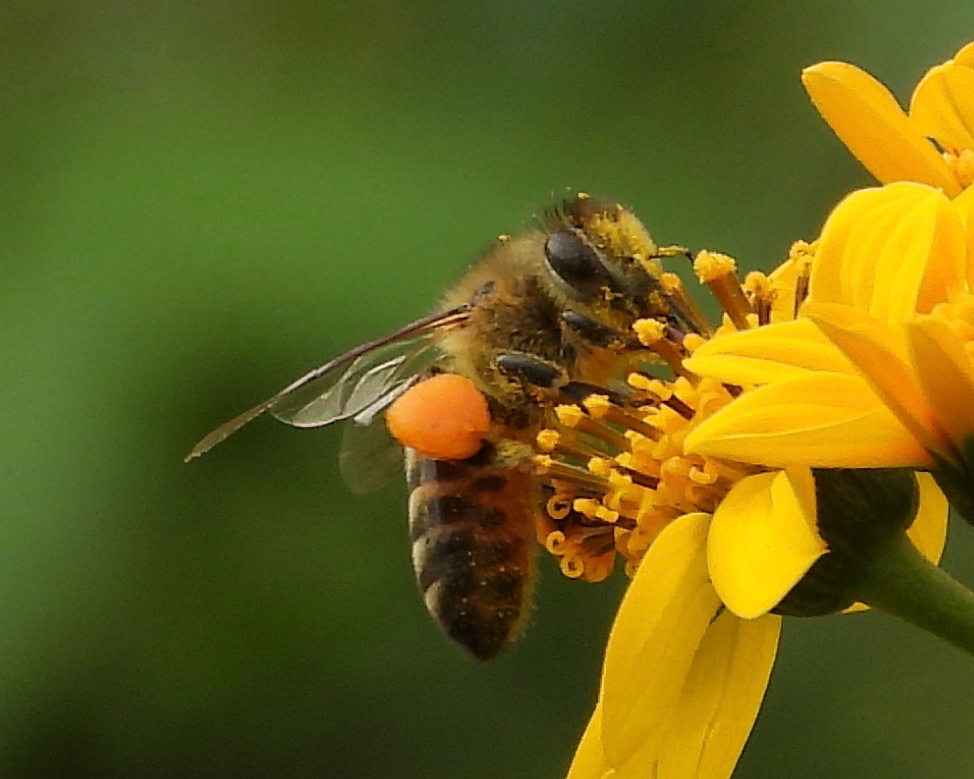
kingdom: Animalia
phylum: Arthropoda
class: Insecta
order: Hymenoptera
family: Apidae
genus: Apis
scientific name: Apis mellifera
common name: Honey bee
